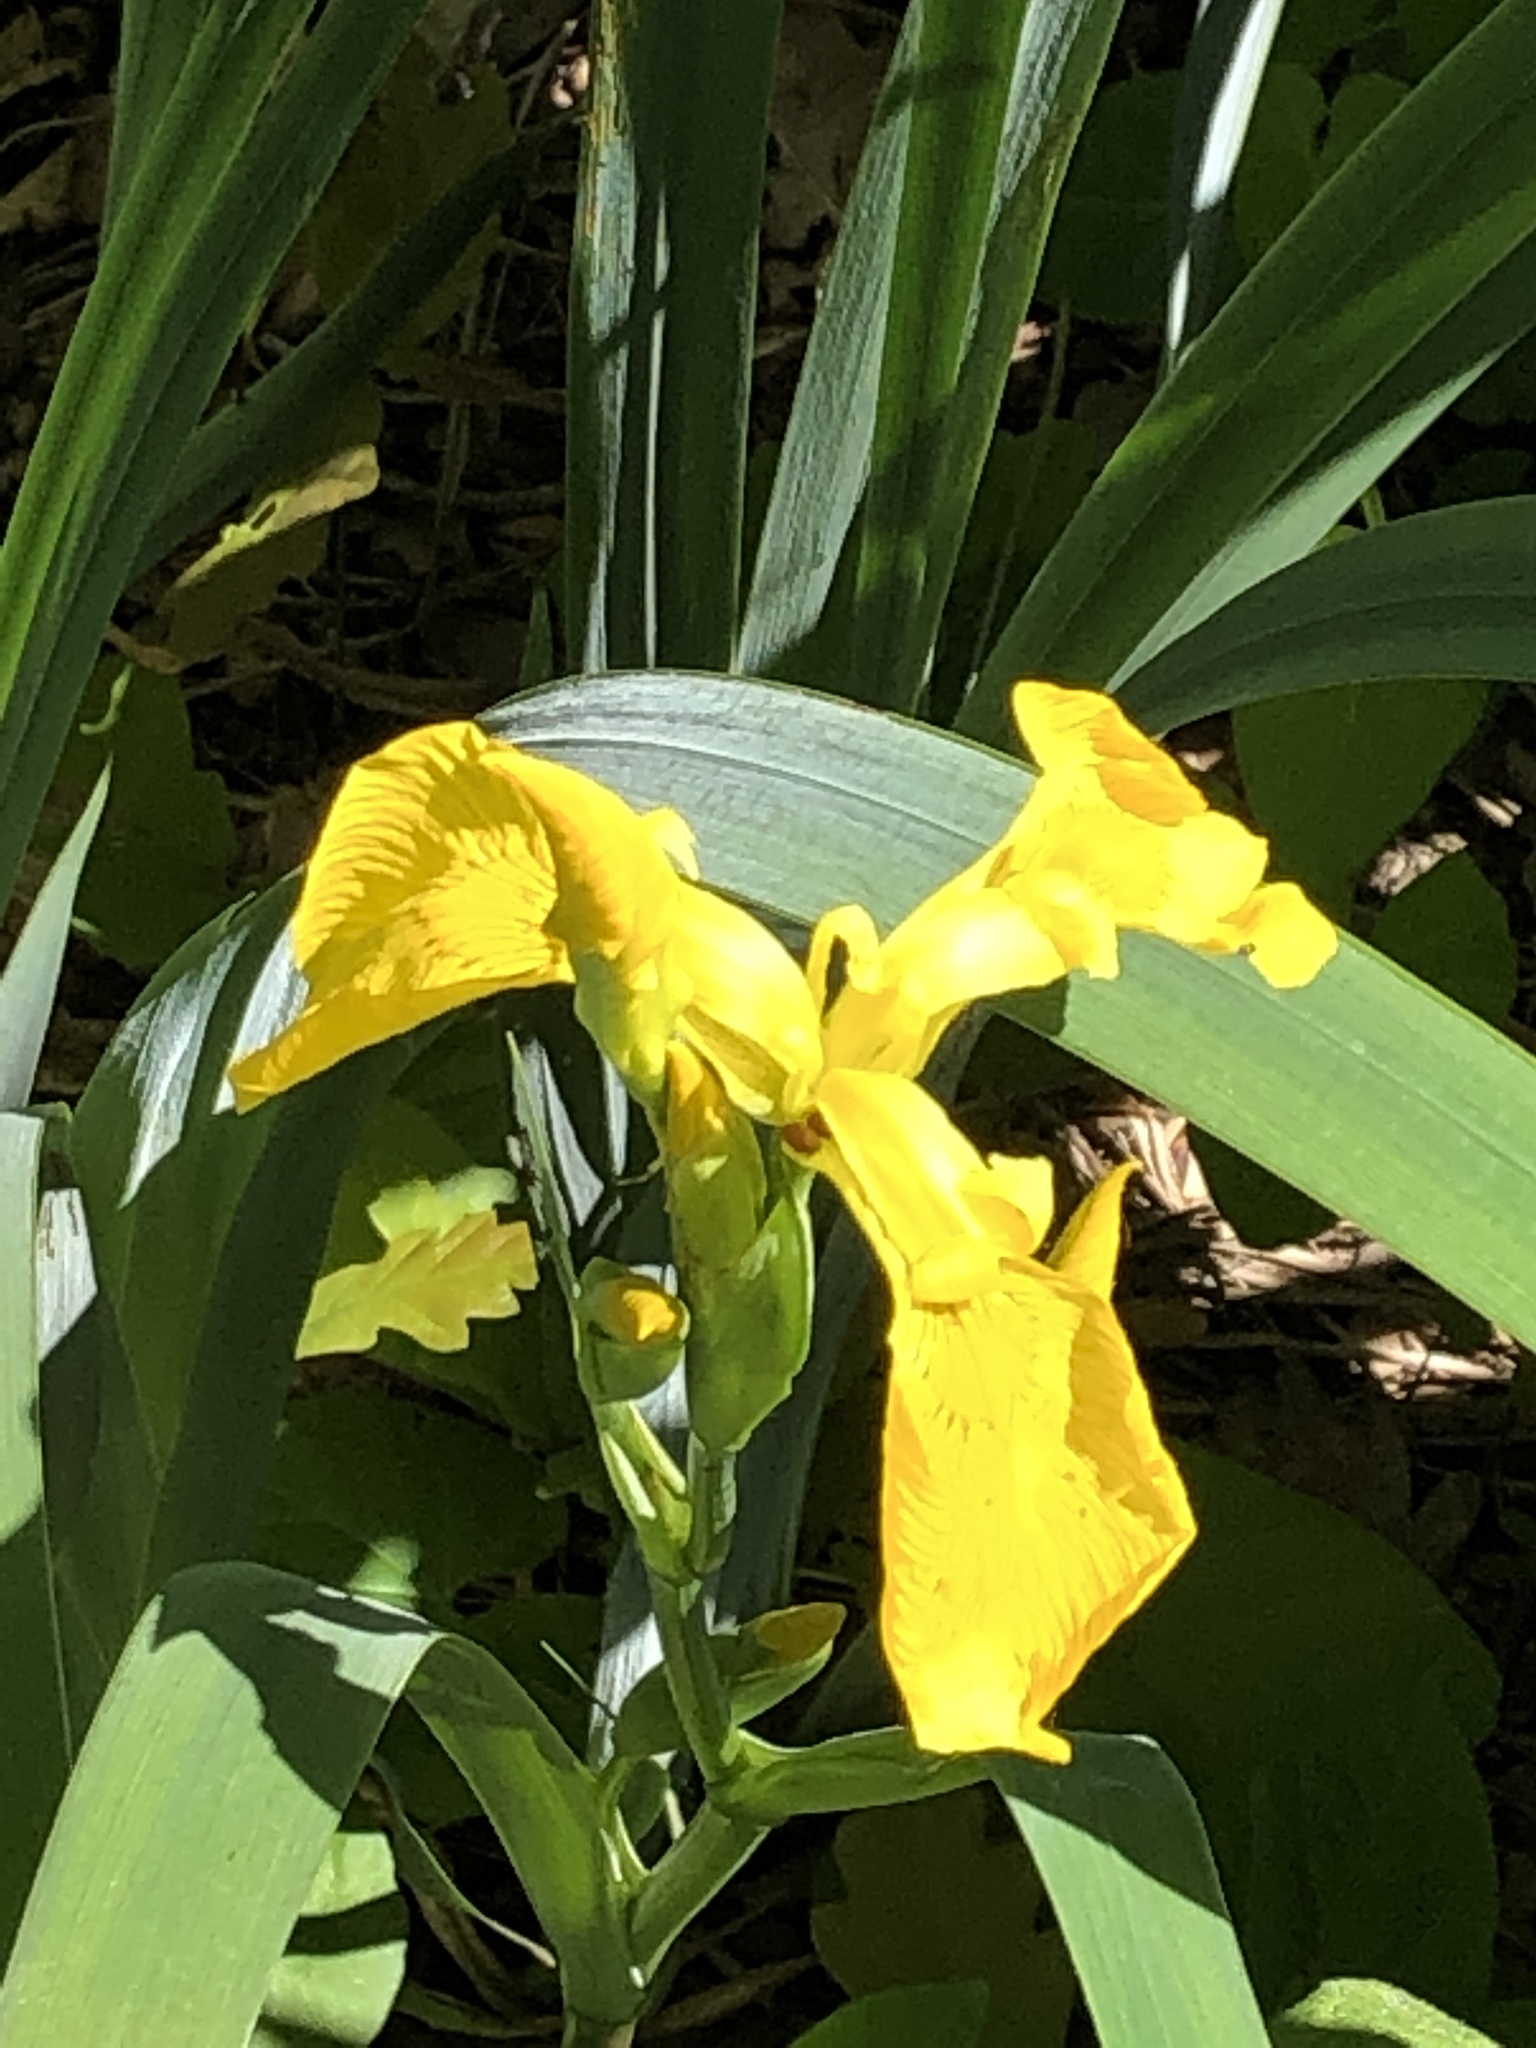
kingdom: Plantae
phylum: Tracheophyta
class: Liliopsida
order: Asparagales
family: Iridaceae
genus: Iris
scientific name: Iris pseudacorus
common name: Yellow flag
